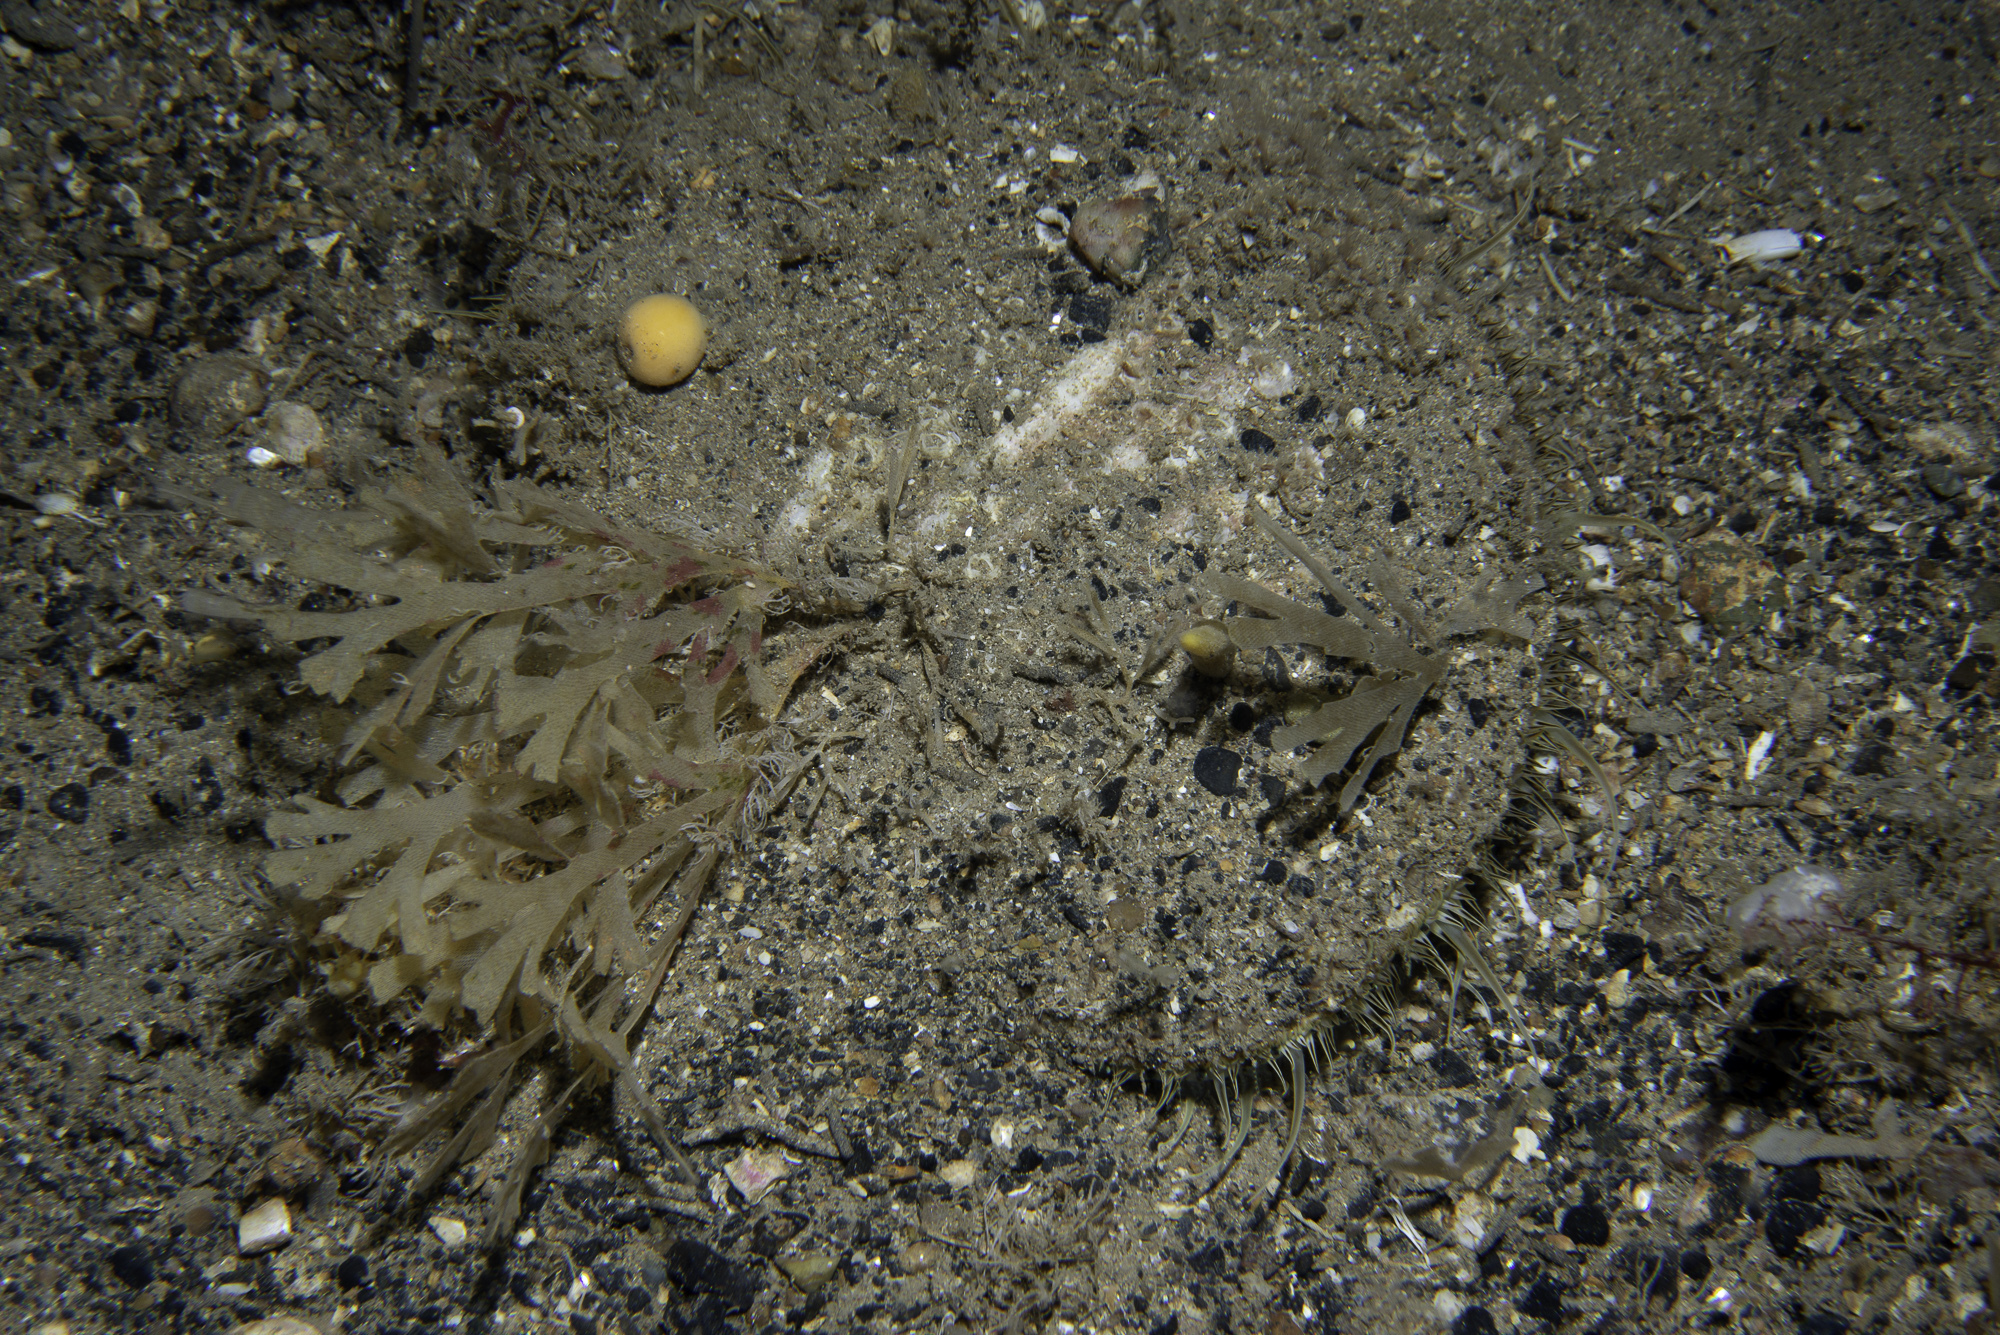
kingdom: Animalia
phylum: Mollusca
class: Bivalvia
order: Pectinida
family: Pectinidae
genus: Pecten
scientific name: Pecten maximus
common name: Great scallop
